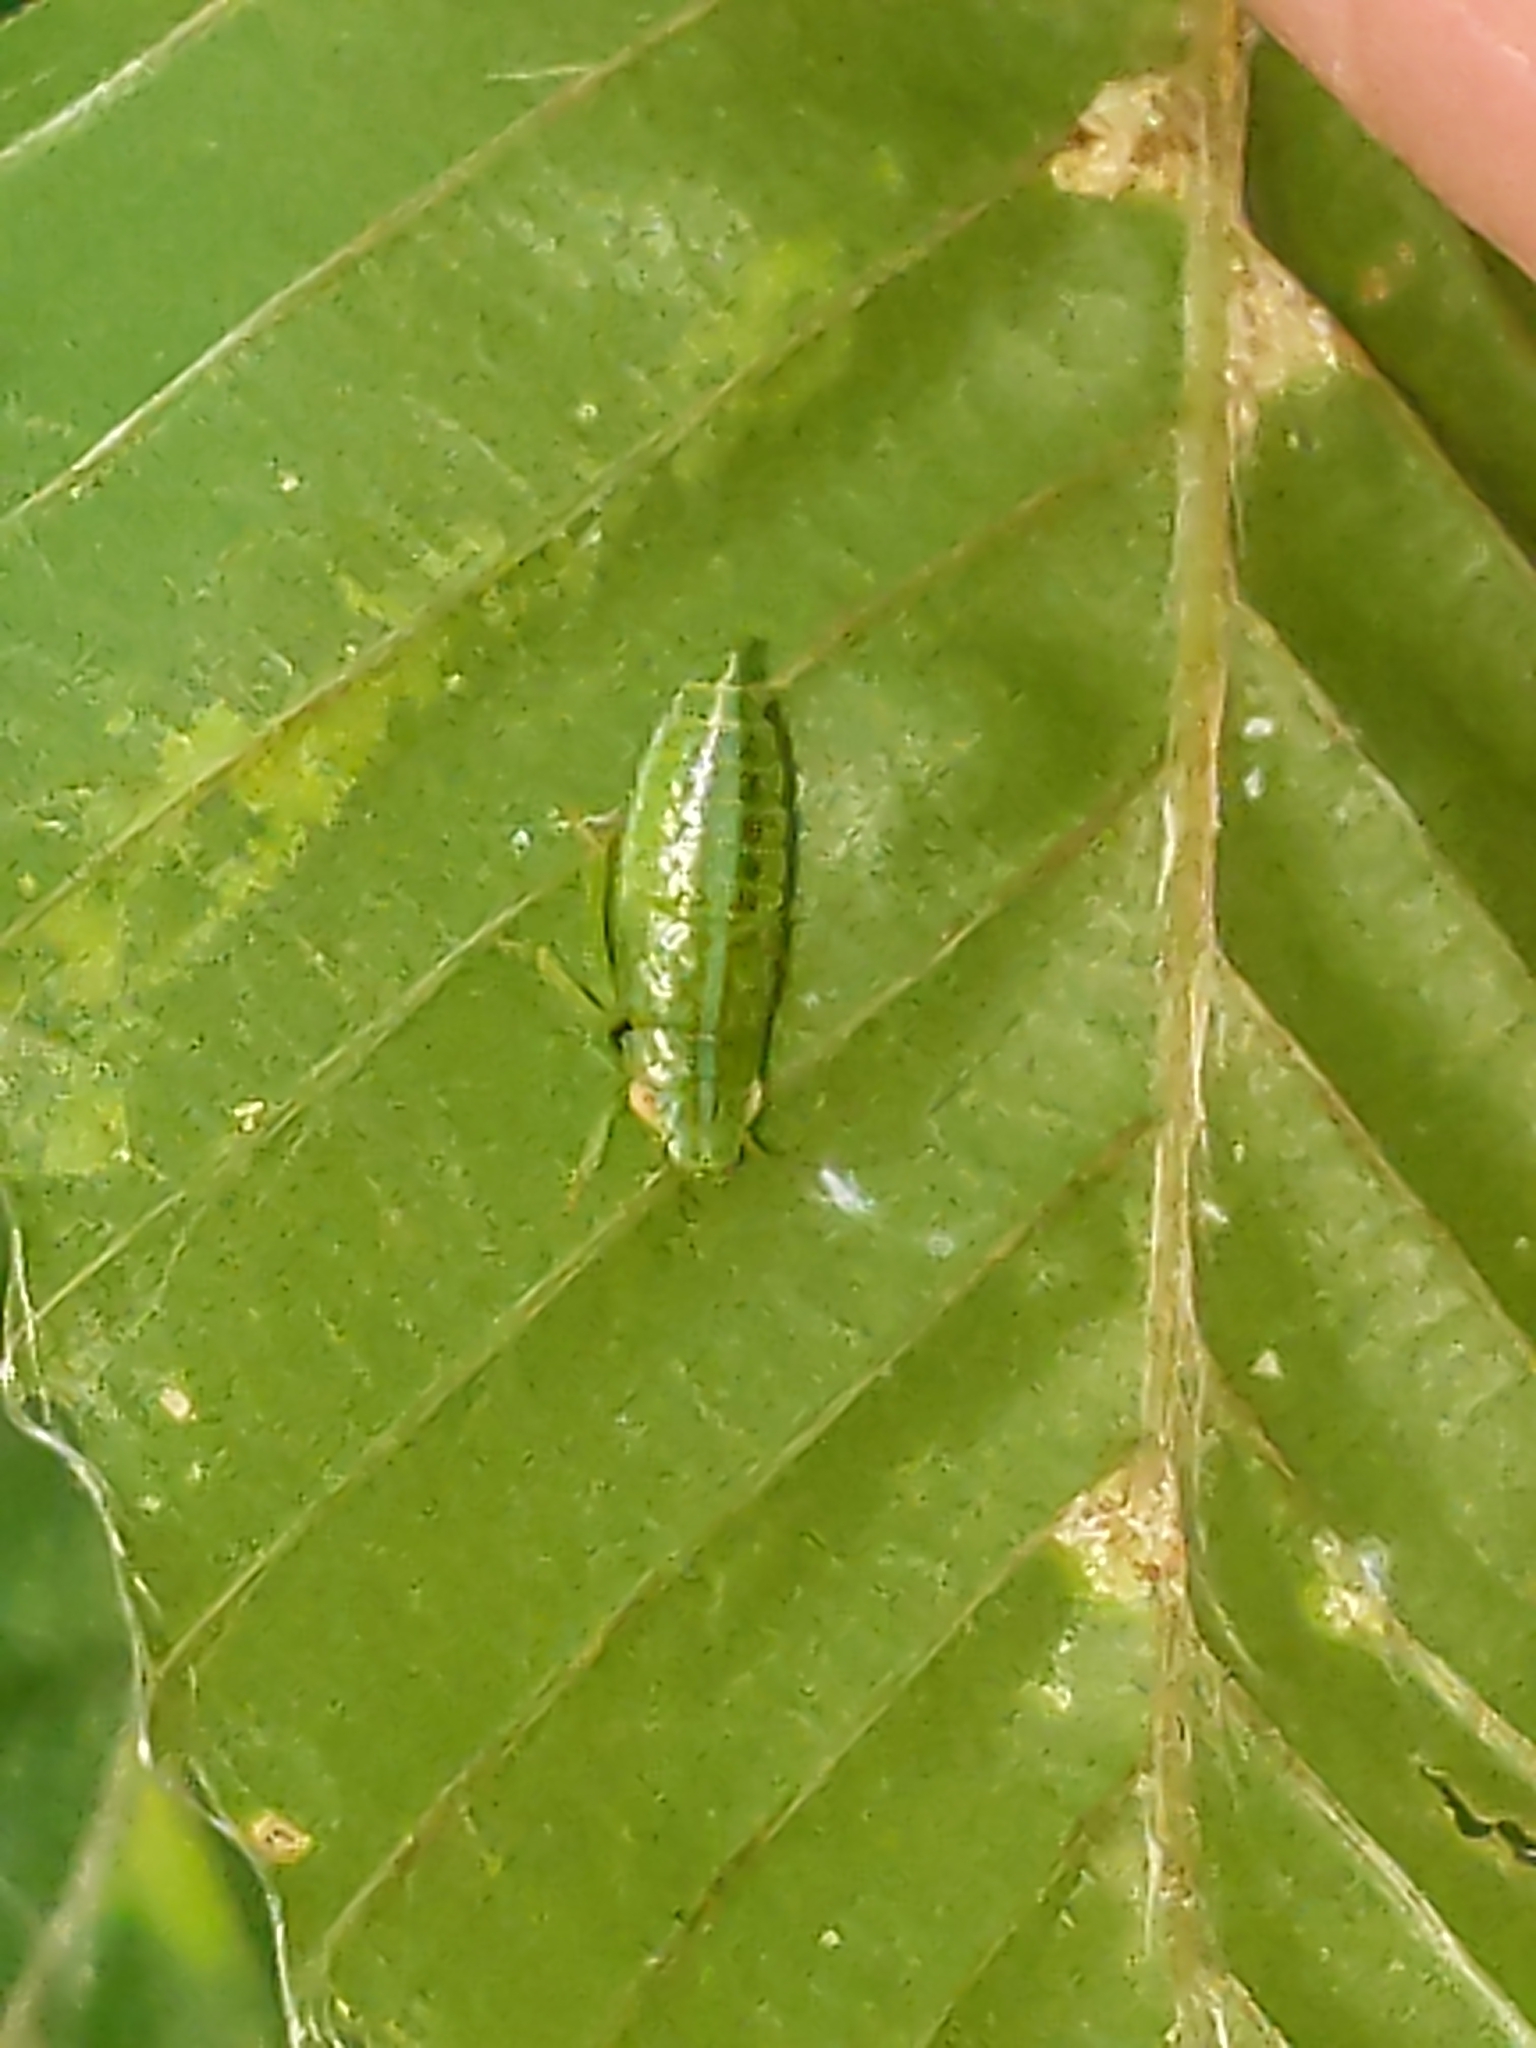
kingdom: Animalia
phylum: Arthropoda
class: Insecta
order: Hemiptera
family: Cicadellidae
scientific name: Cicadellidae
